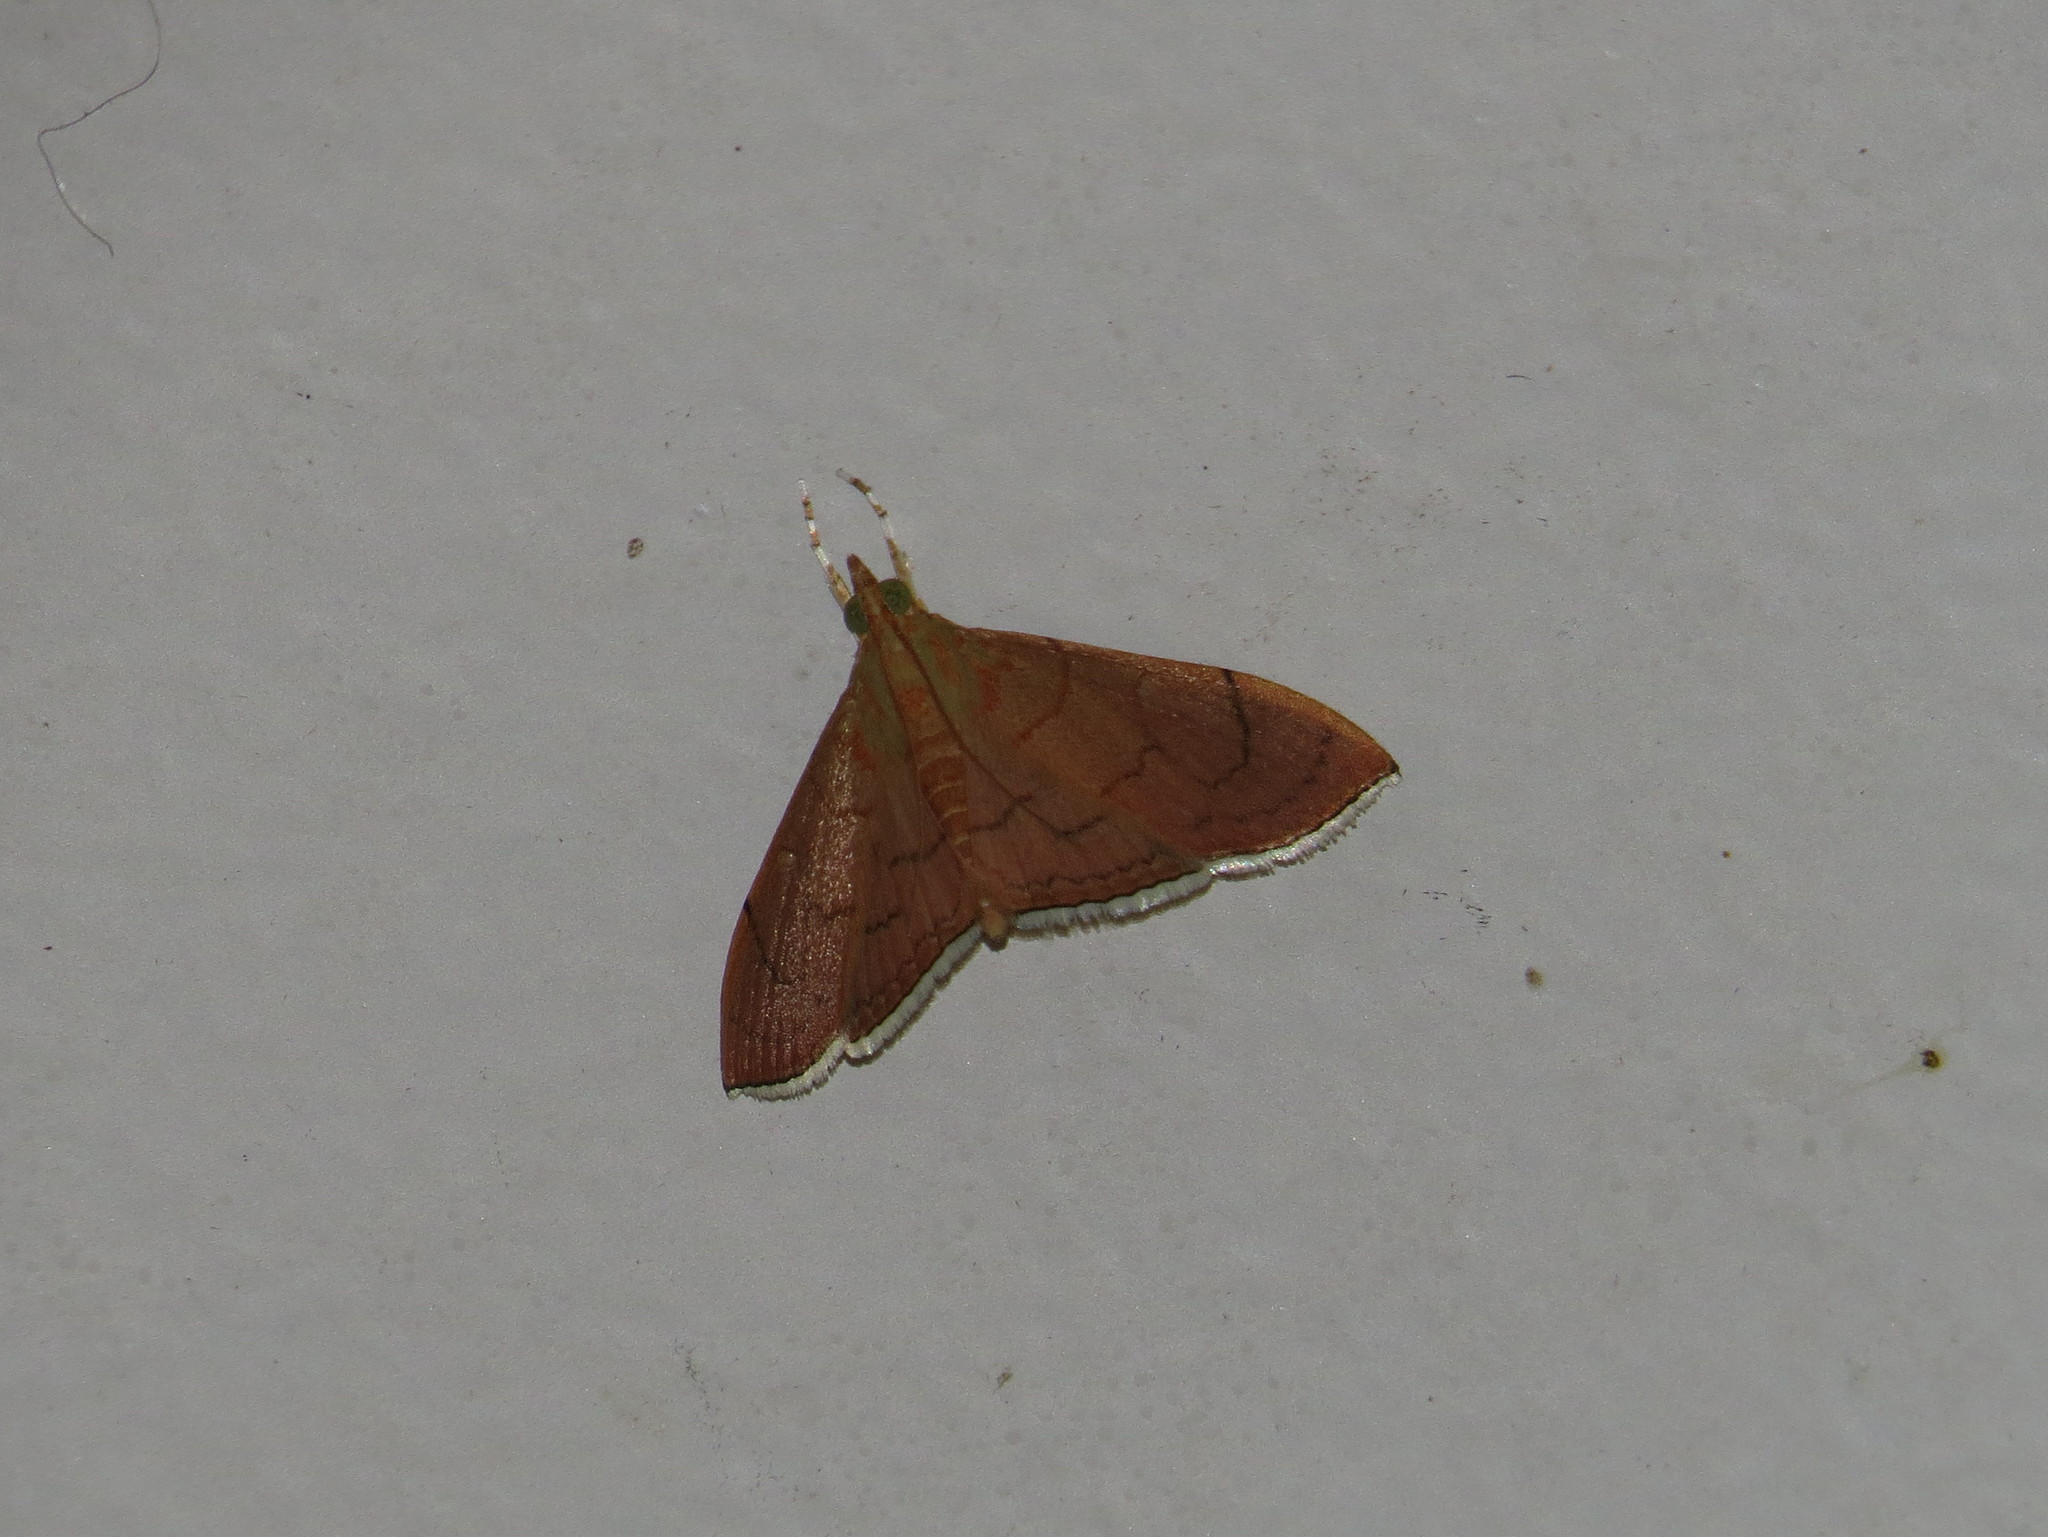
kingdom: Animalia
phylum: Arthropoda
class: Insecta
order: Lepidoptera
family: Crambidae
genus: Hyalobathra
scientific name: Hyalobathra
